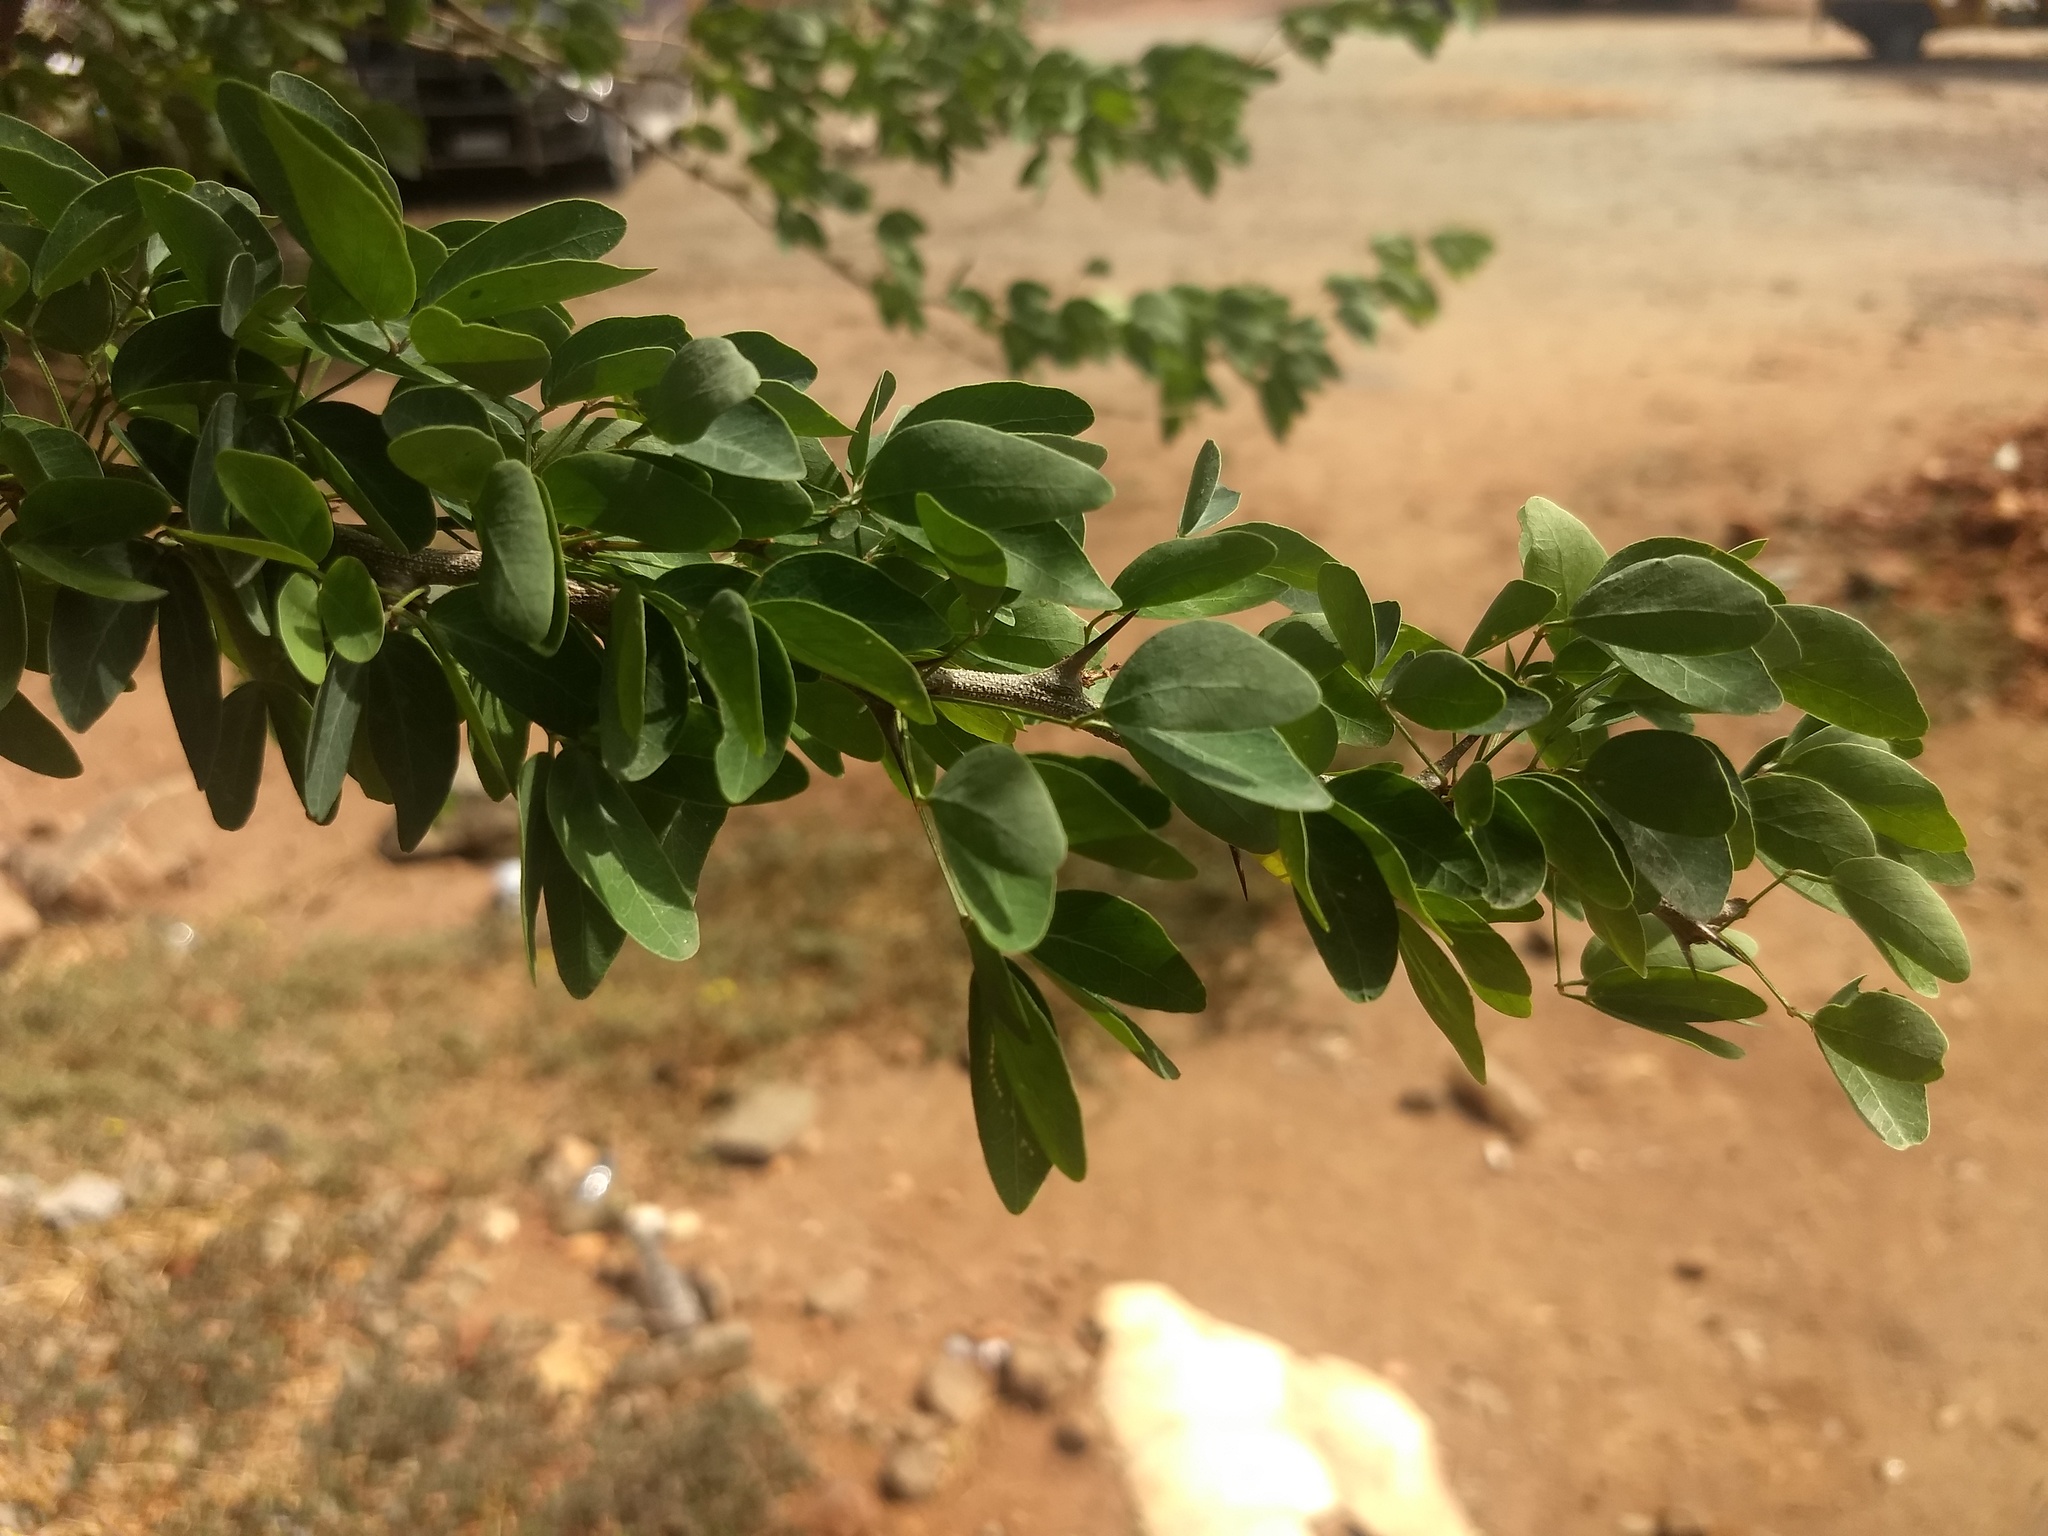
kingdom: Plantae
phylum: Tracheophyta
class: Magnoliopsida
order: Fabales
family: Fabaceae
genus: Pithecellobium
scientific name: Pithecellobium dulce
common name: Monkeypod
